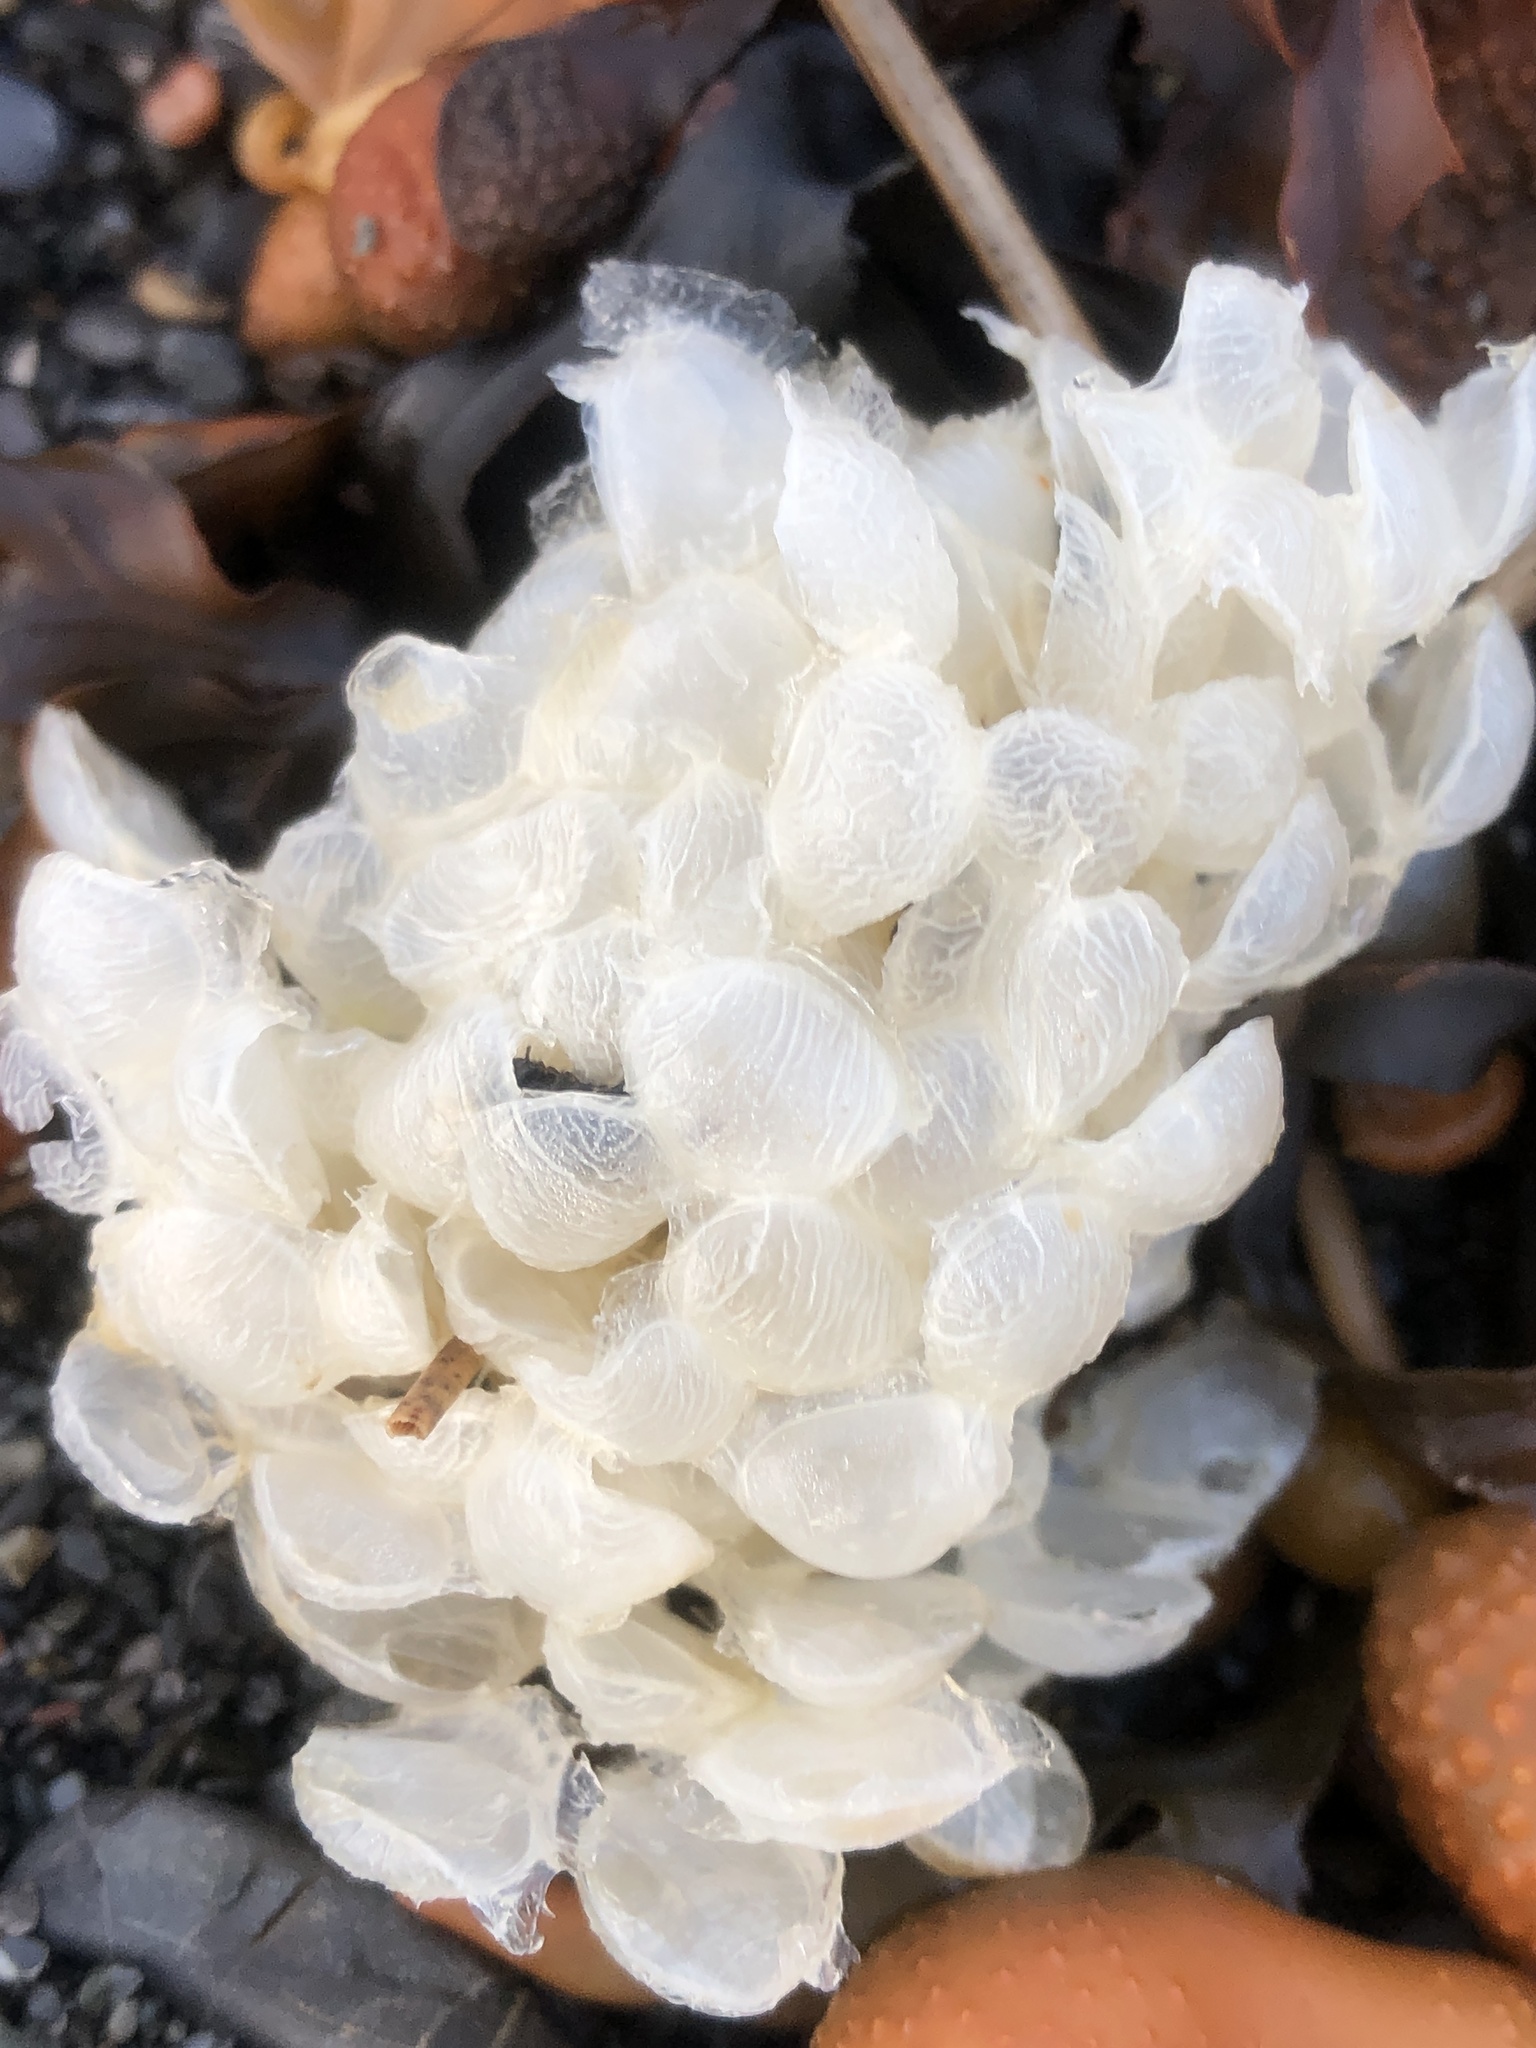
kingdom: Animalia
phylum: Mollusca
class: Gastropoda
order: Neogastropoda
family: Buccinidae
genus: Buccinum
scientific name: Buccinum undatum
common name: Common whelk
